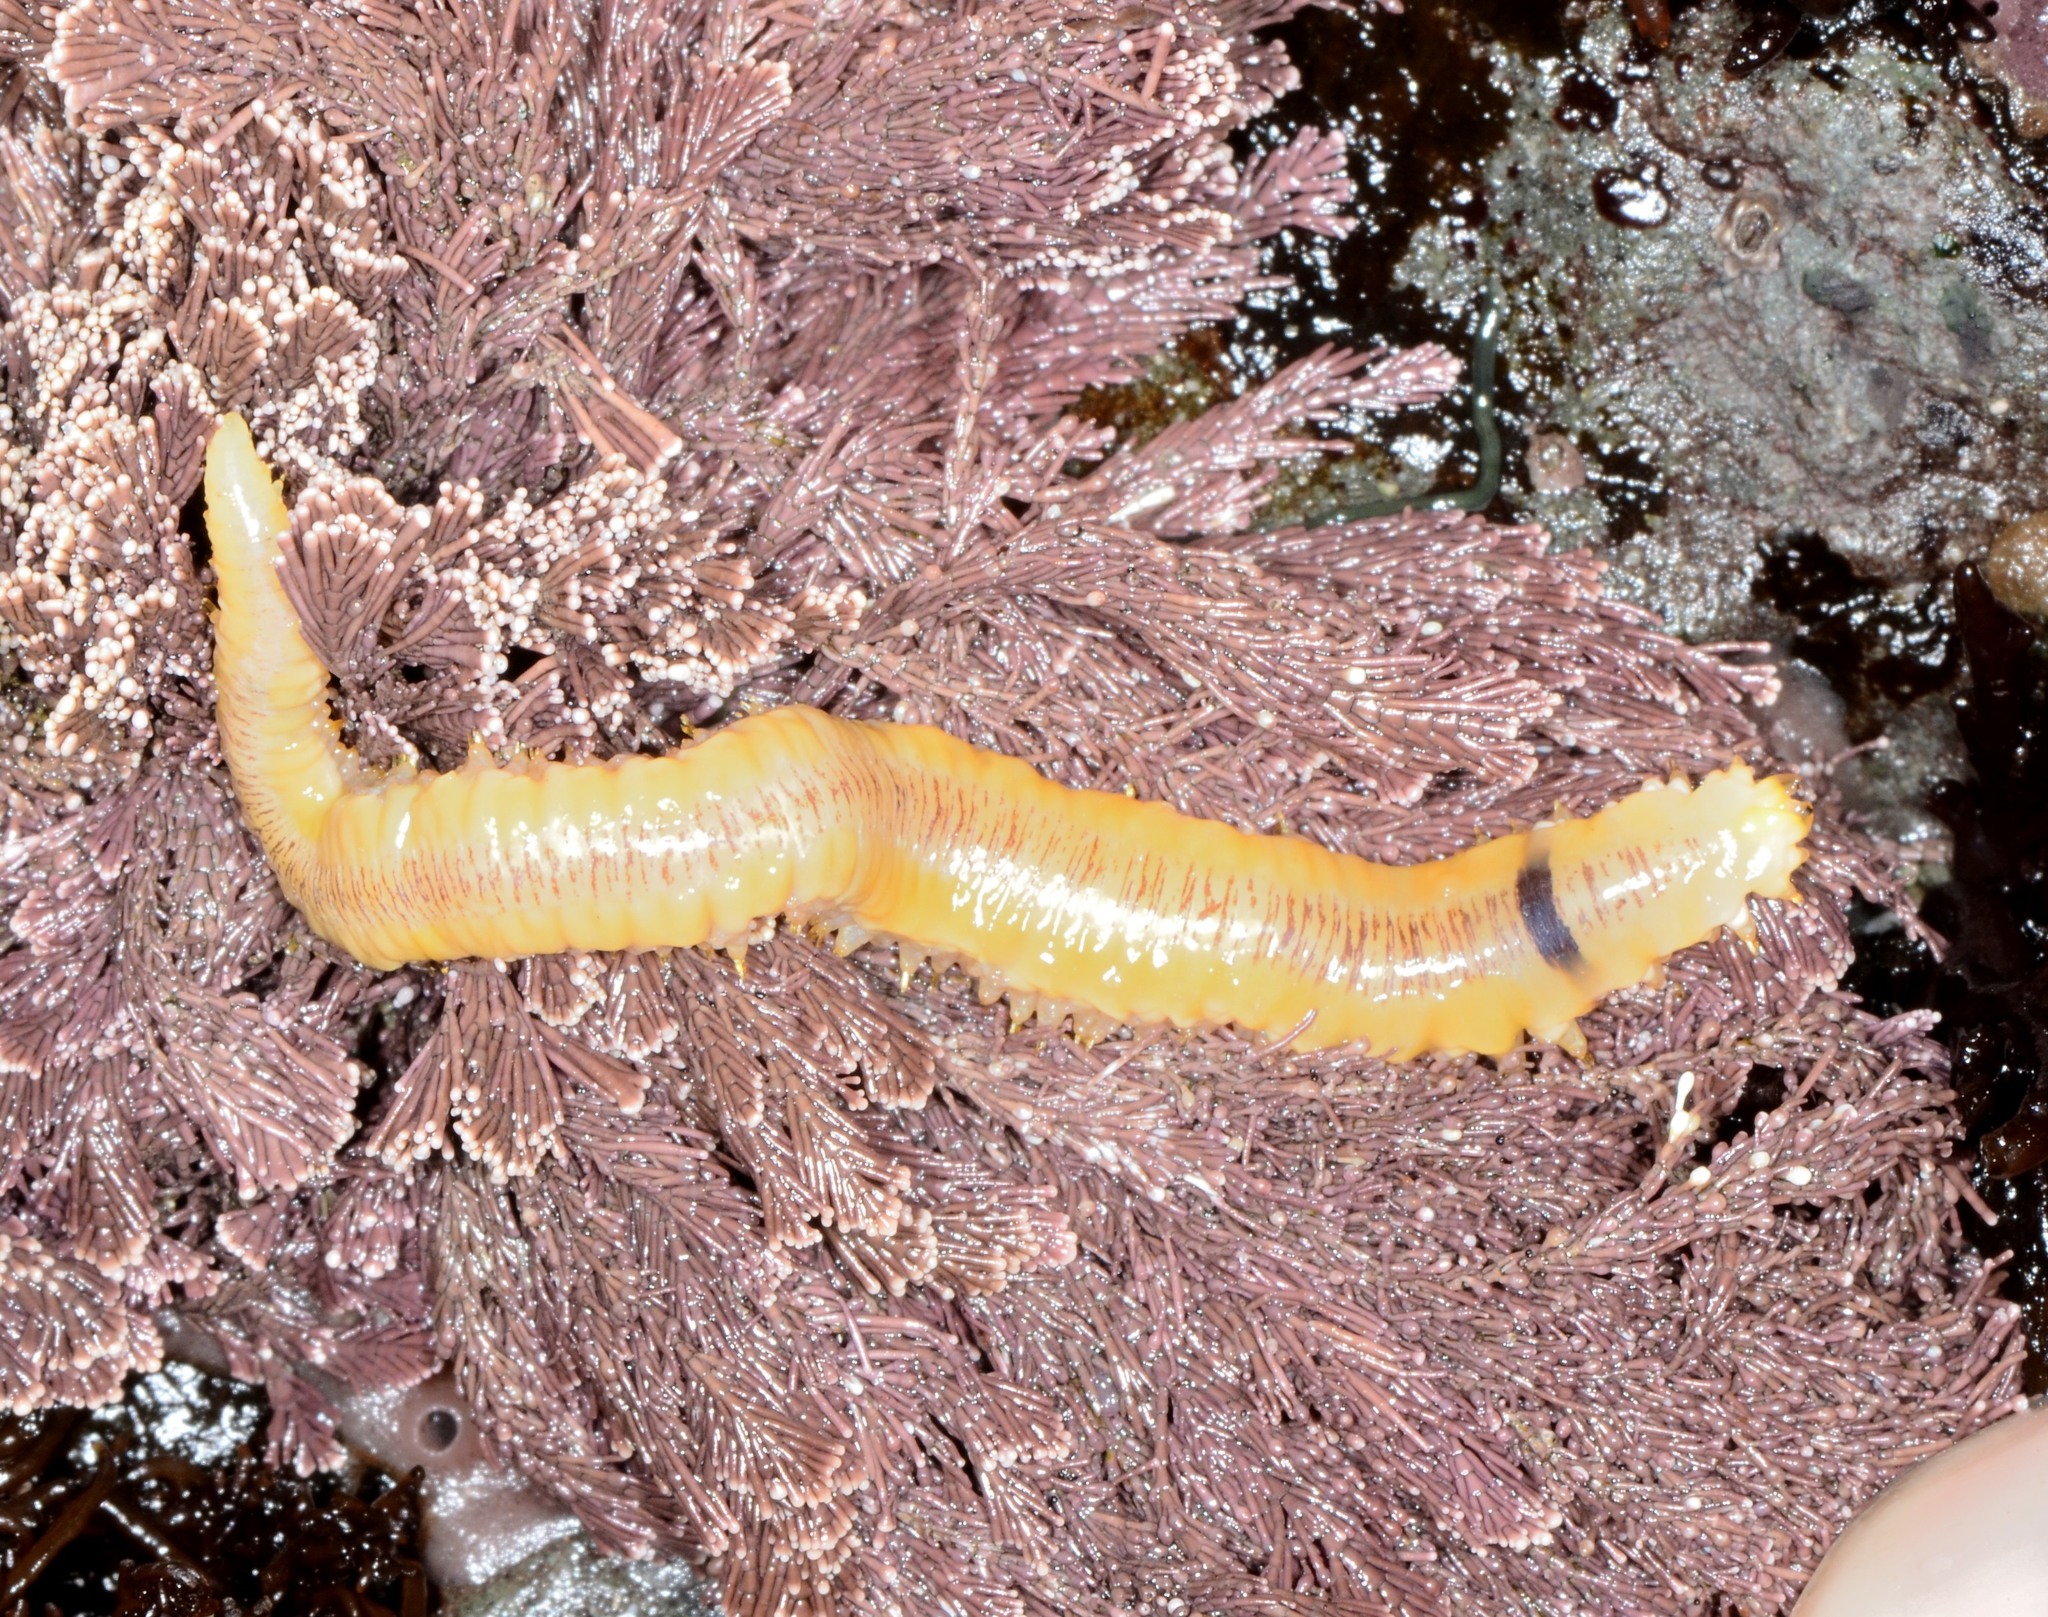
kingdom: Animalia
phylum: Annelida
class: Polychaeta
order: Phyllodocida
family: Polynoidae
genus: Arctonoe
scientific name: Arctonoe vittata
